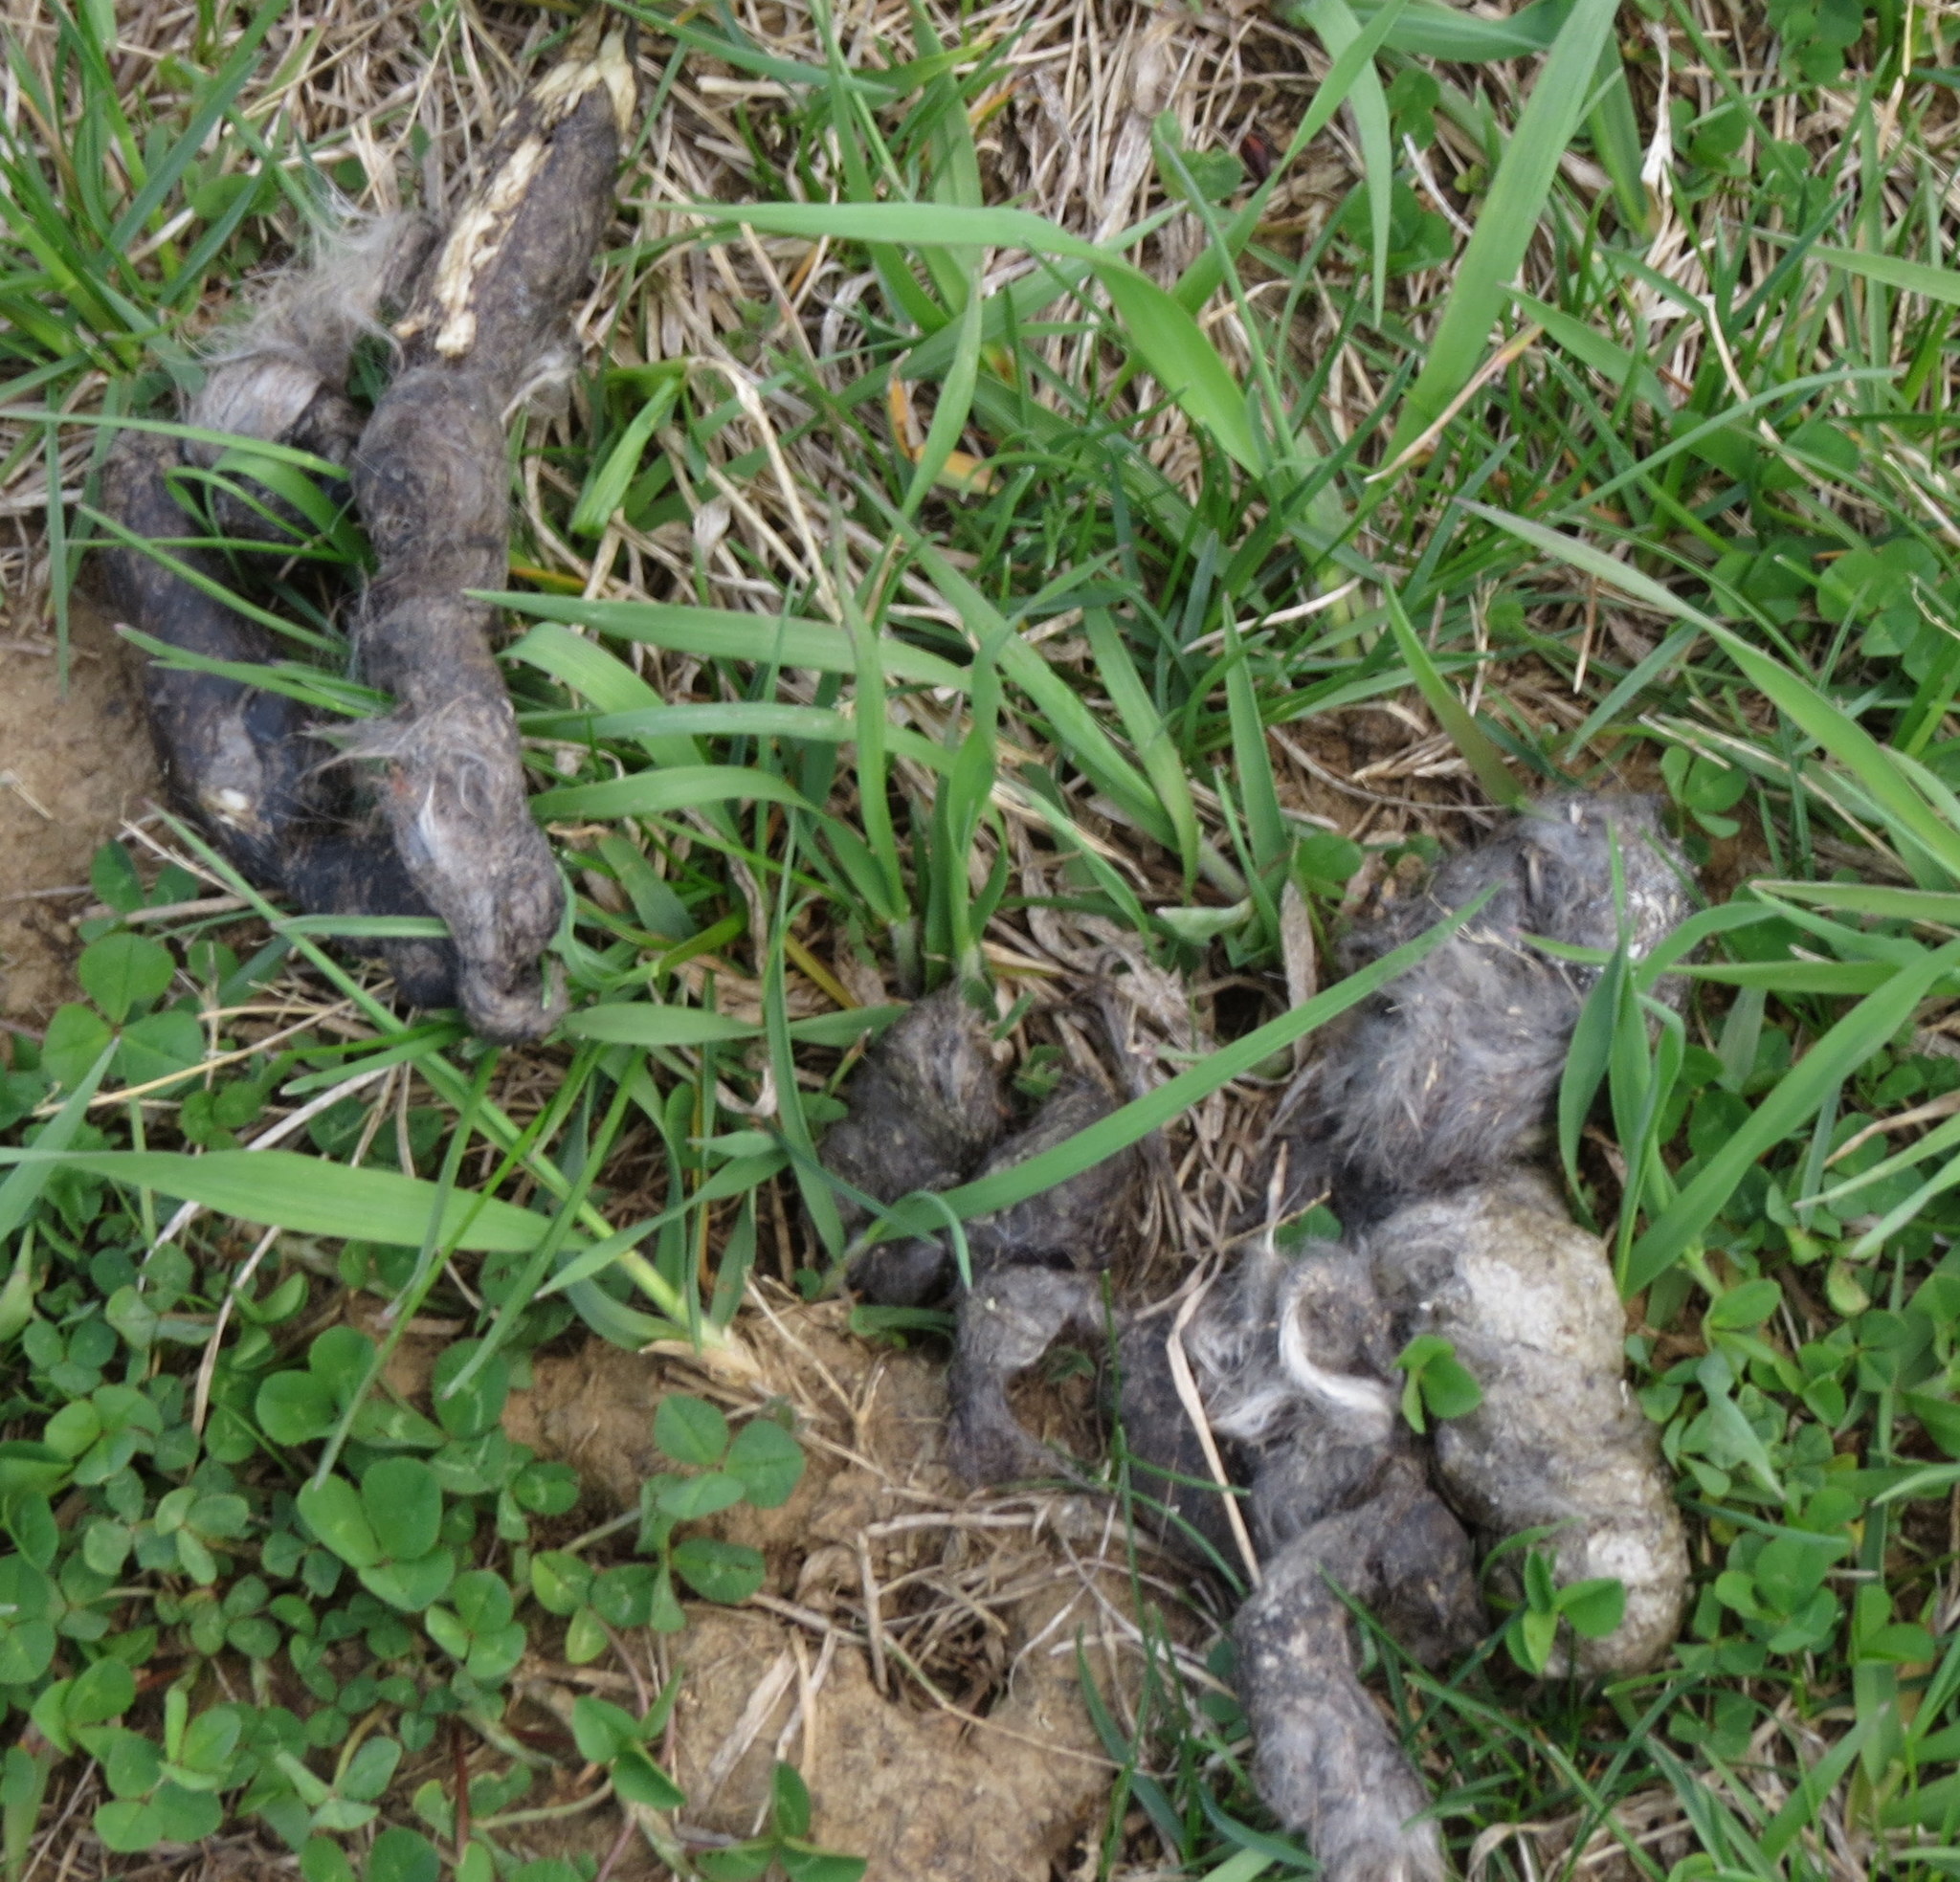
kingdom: Animalia
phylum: Chordata
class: Mammalia
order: Carnivora
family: Canidae
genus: Canis
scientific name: Canis latrans
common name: Coyote
